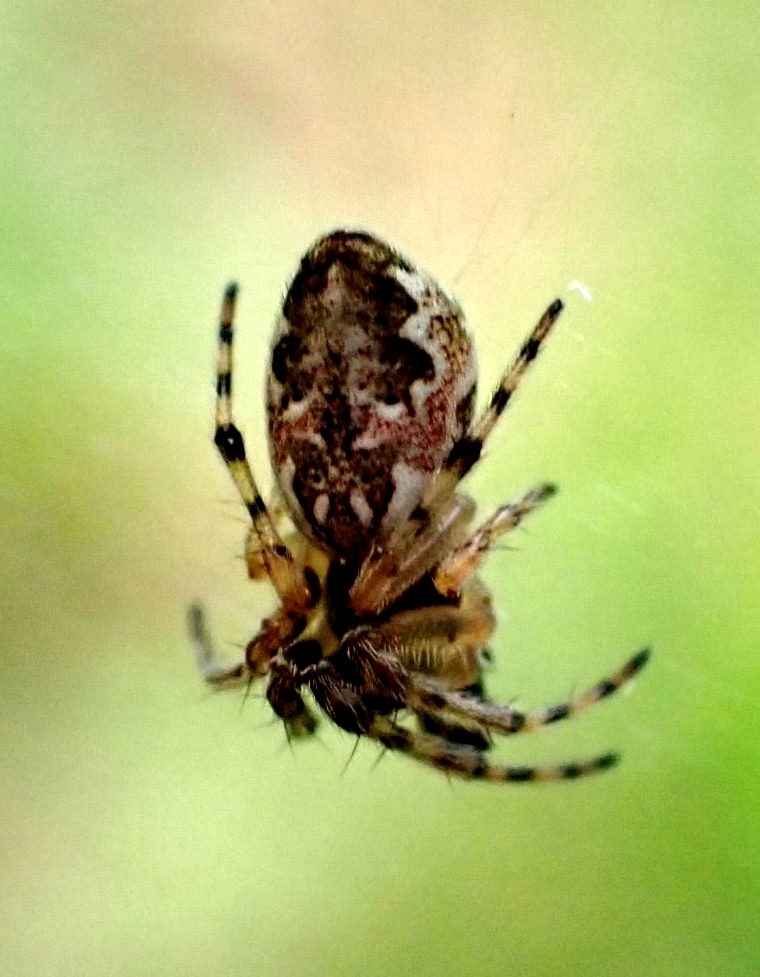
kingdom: Animalia
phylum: Arthropoda
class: Arachnida
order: Araneae
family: Araneidae
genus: Cyclosa
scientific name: Cyclosa conica
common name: Conical trashline orbweaver
